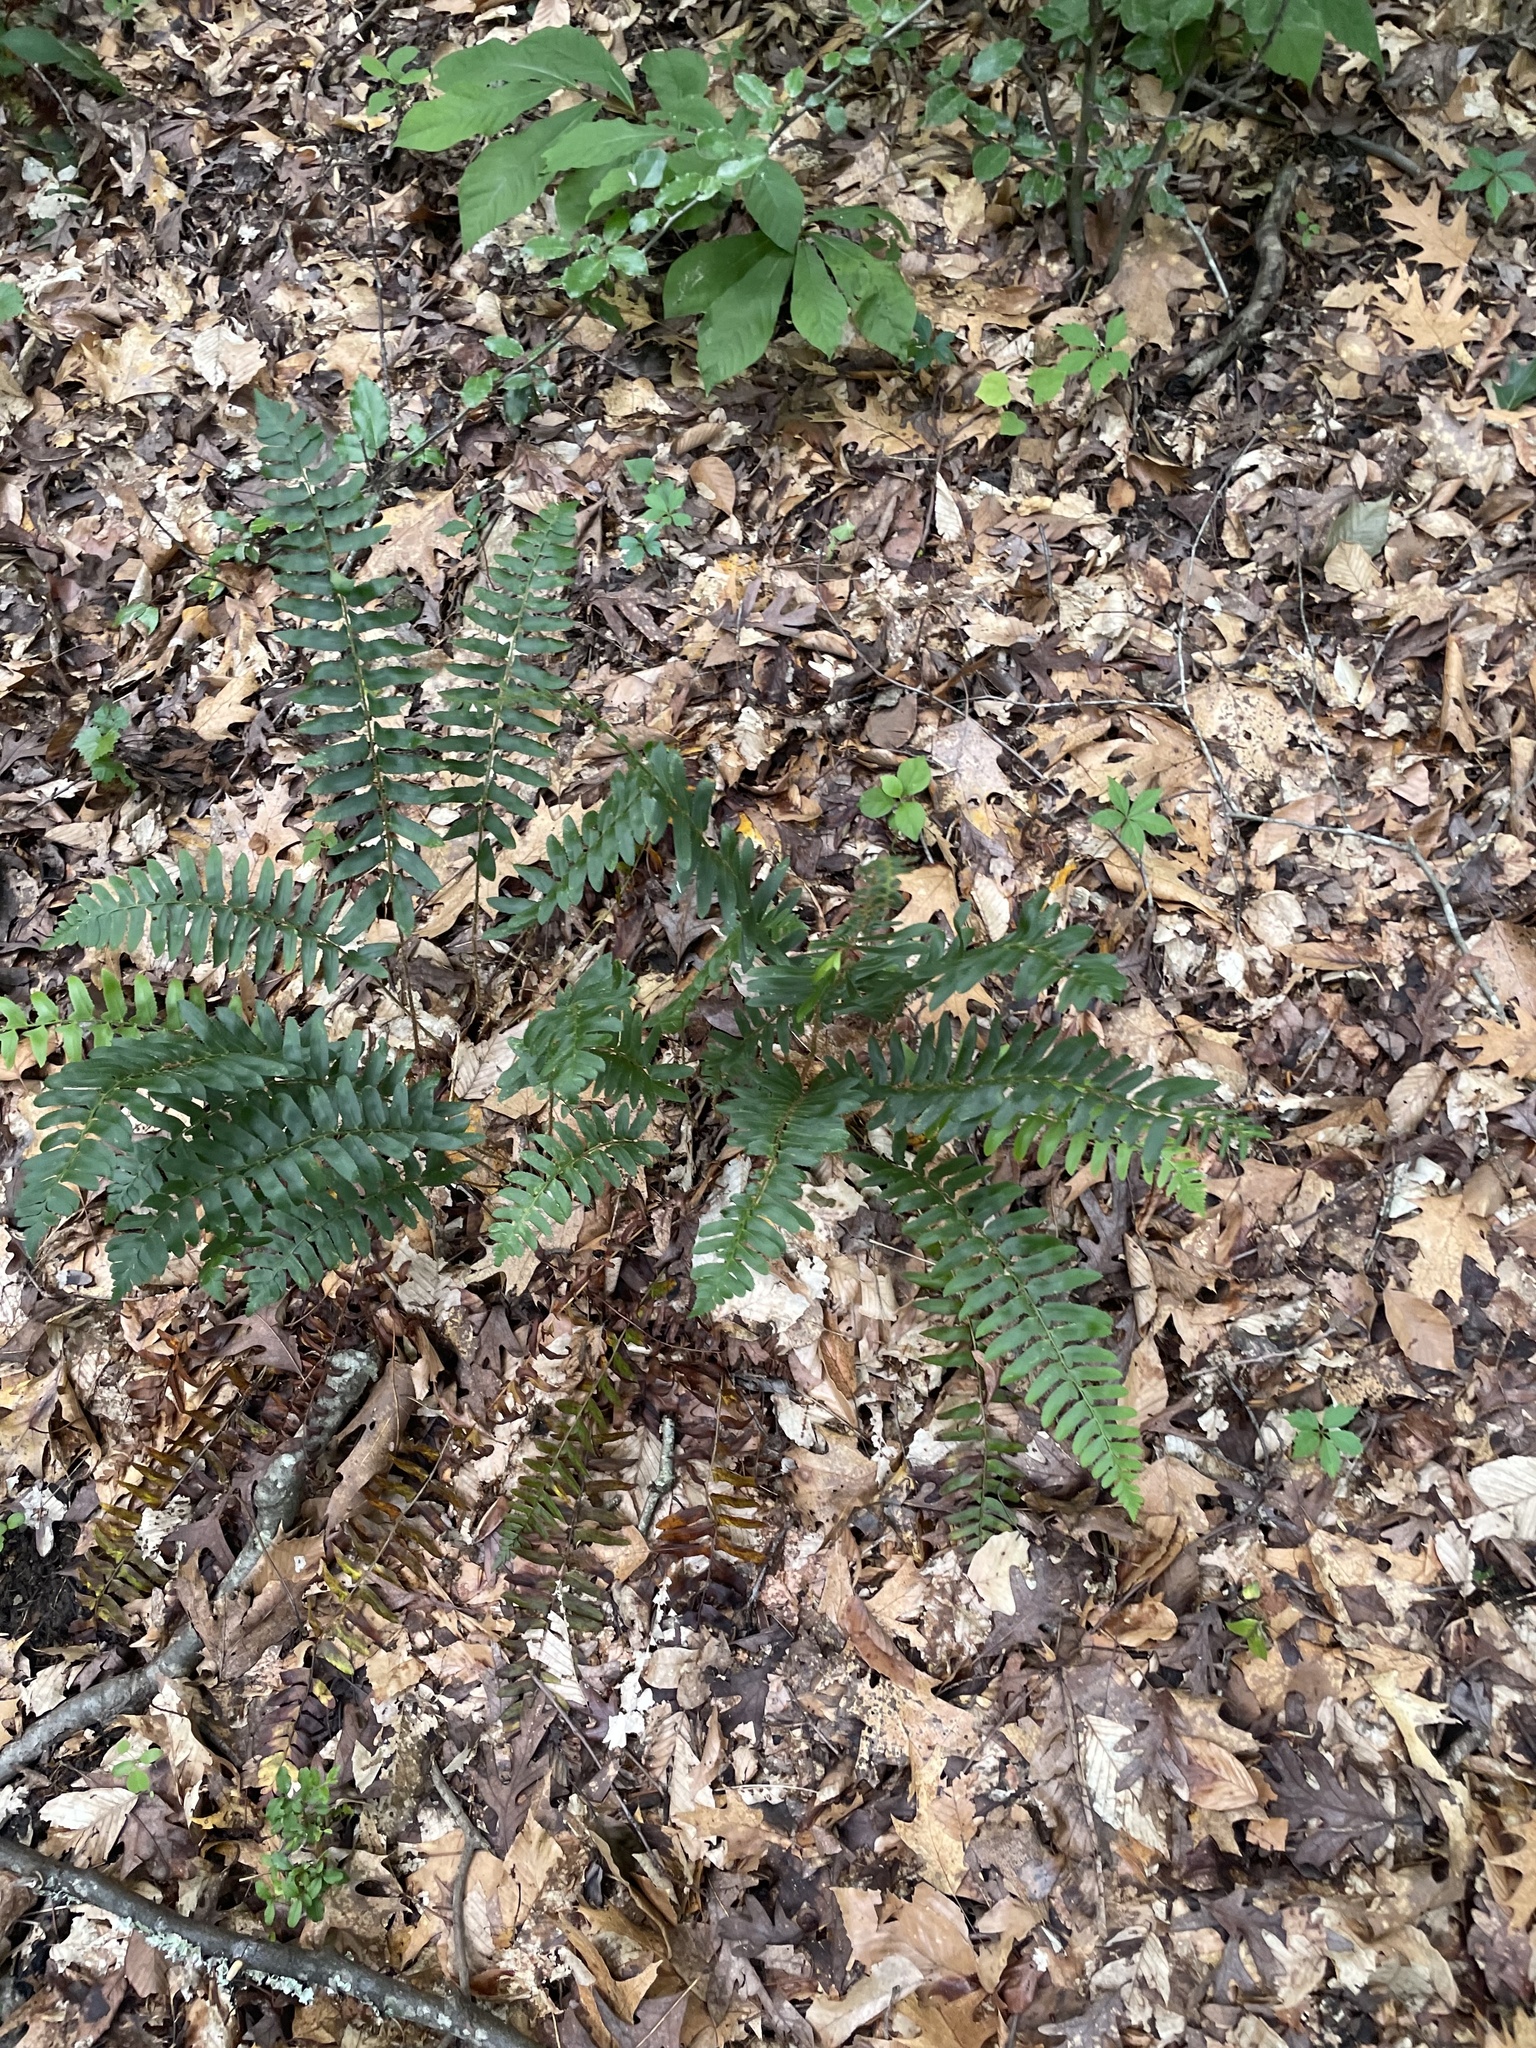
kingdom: Plantae
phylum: Tracheophyta
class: Polypodiopsida
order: Polypodiales
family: Dryopteridaceae
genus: Polystichum
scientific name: Polystichum acrostichoides
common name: Christmas fern
